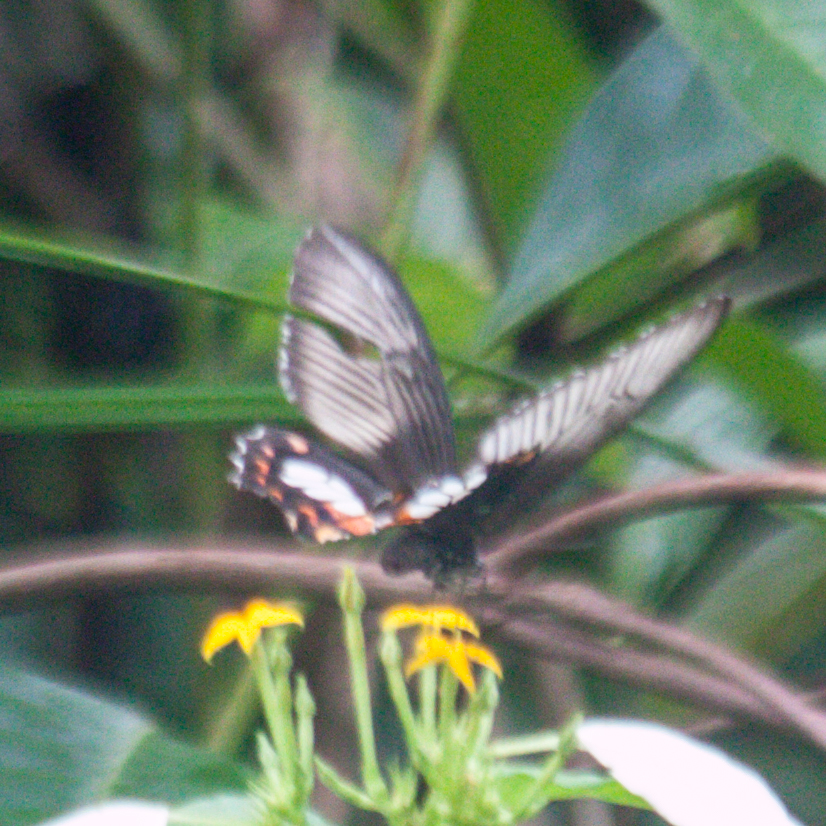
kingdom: Animalia
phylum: Arthropoda
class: Insecta
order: Lepidoptera
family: Papilionidae
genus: Papilio
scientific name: Papilio polytes
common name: Common mormon
